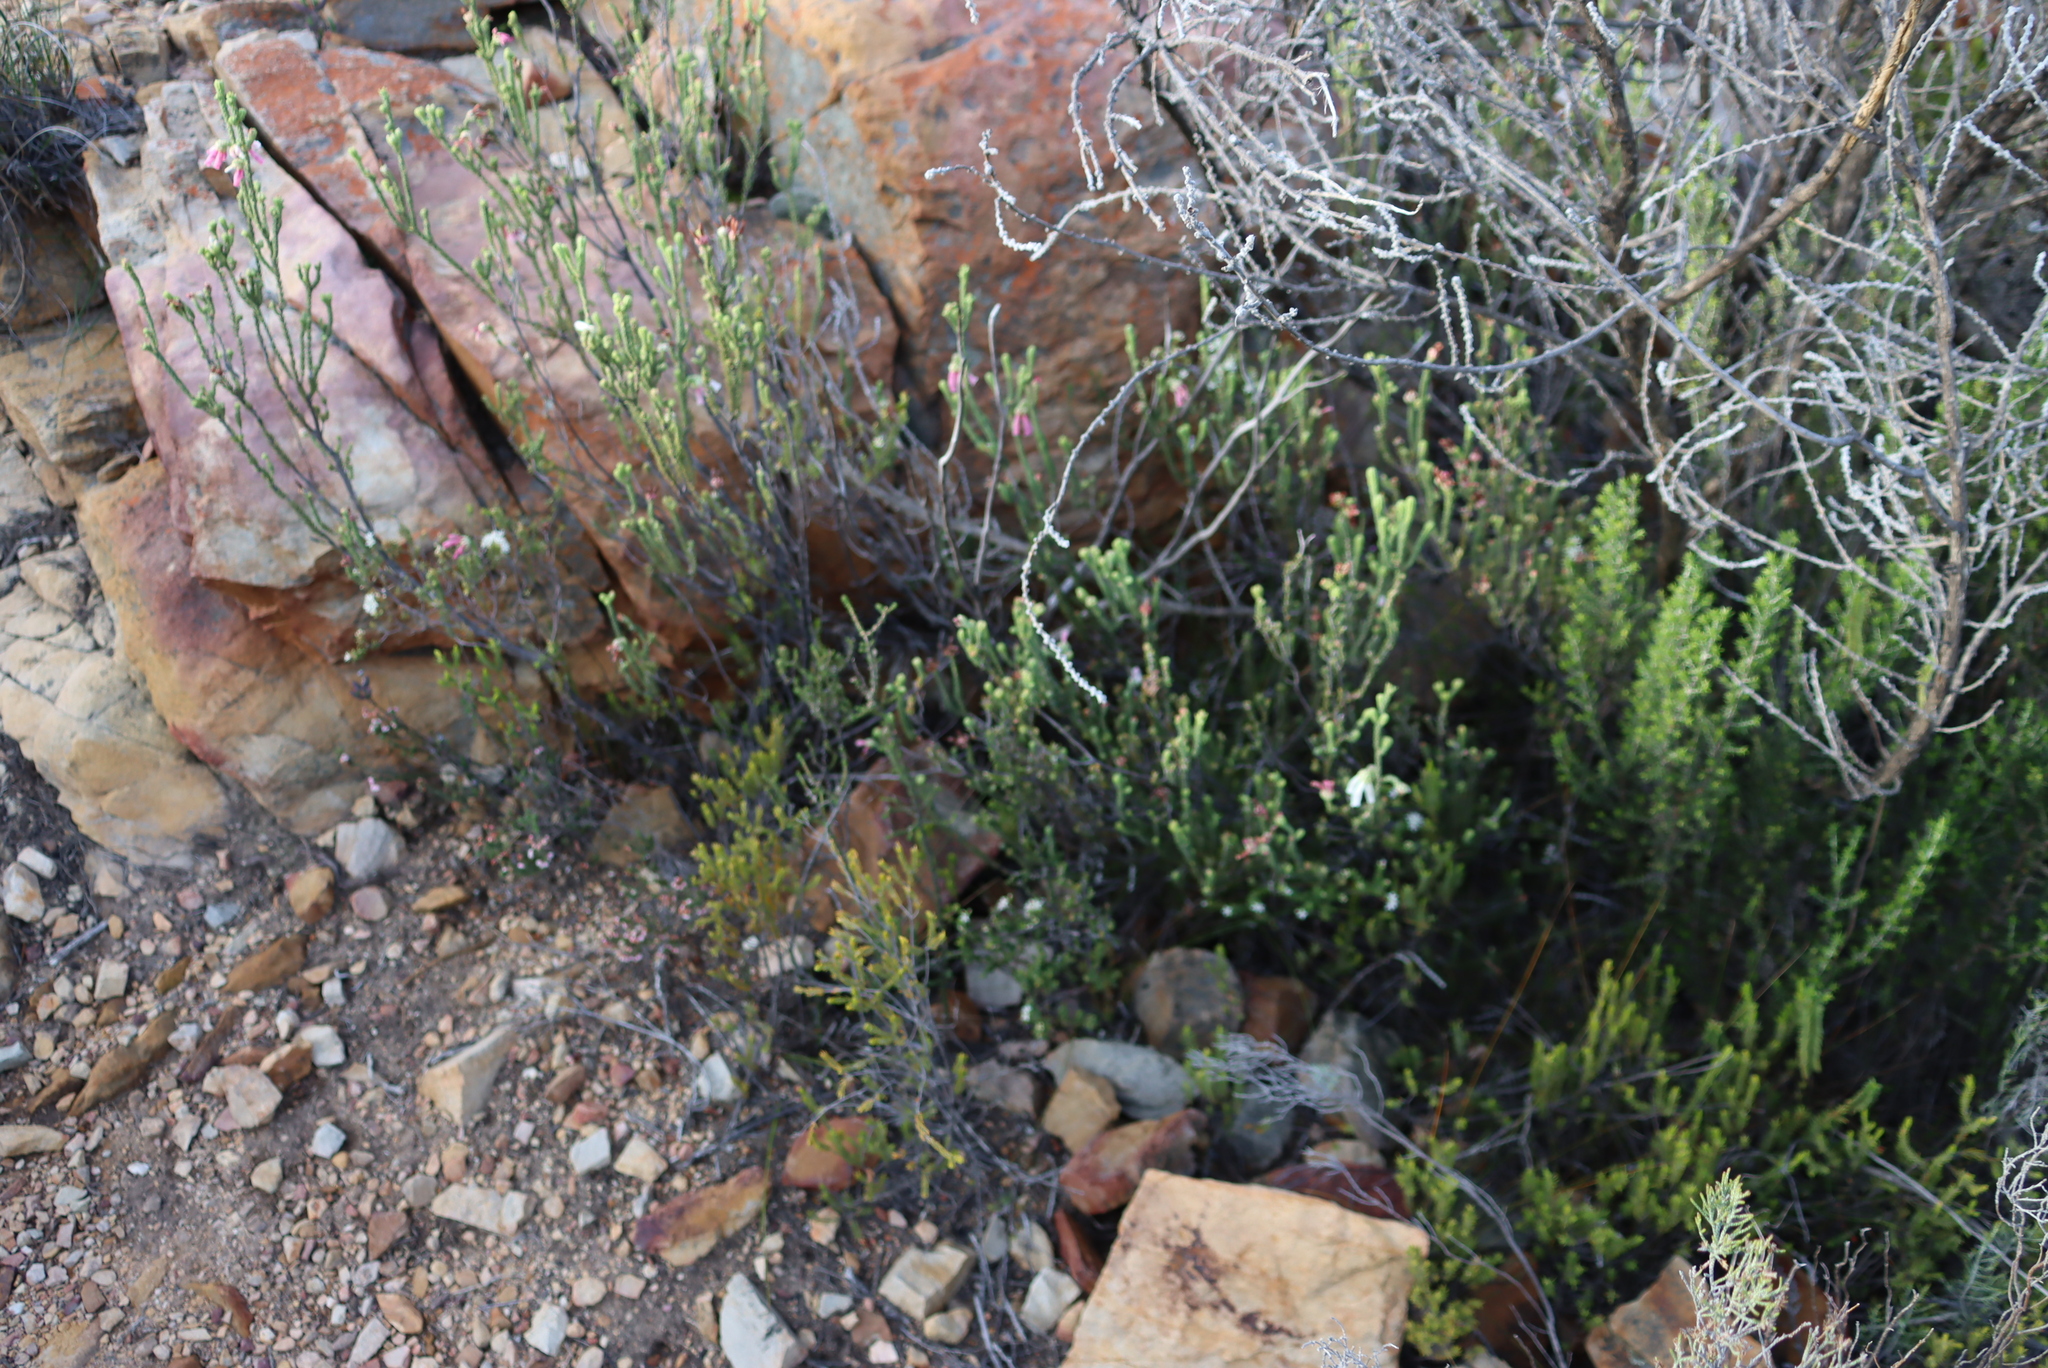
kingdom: Plantae
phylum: Tracheophyta
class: Magnoliopsida
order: Ericales
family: Ericaceae
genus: Erica
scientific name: Erica pectinifolia
